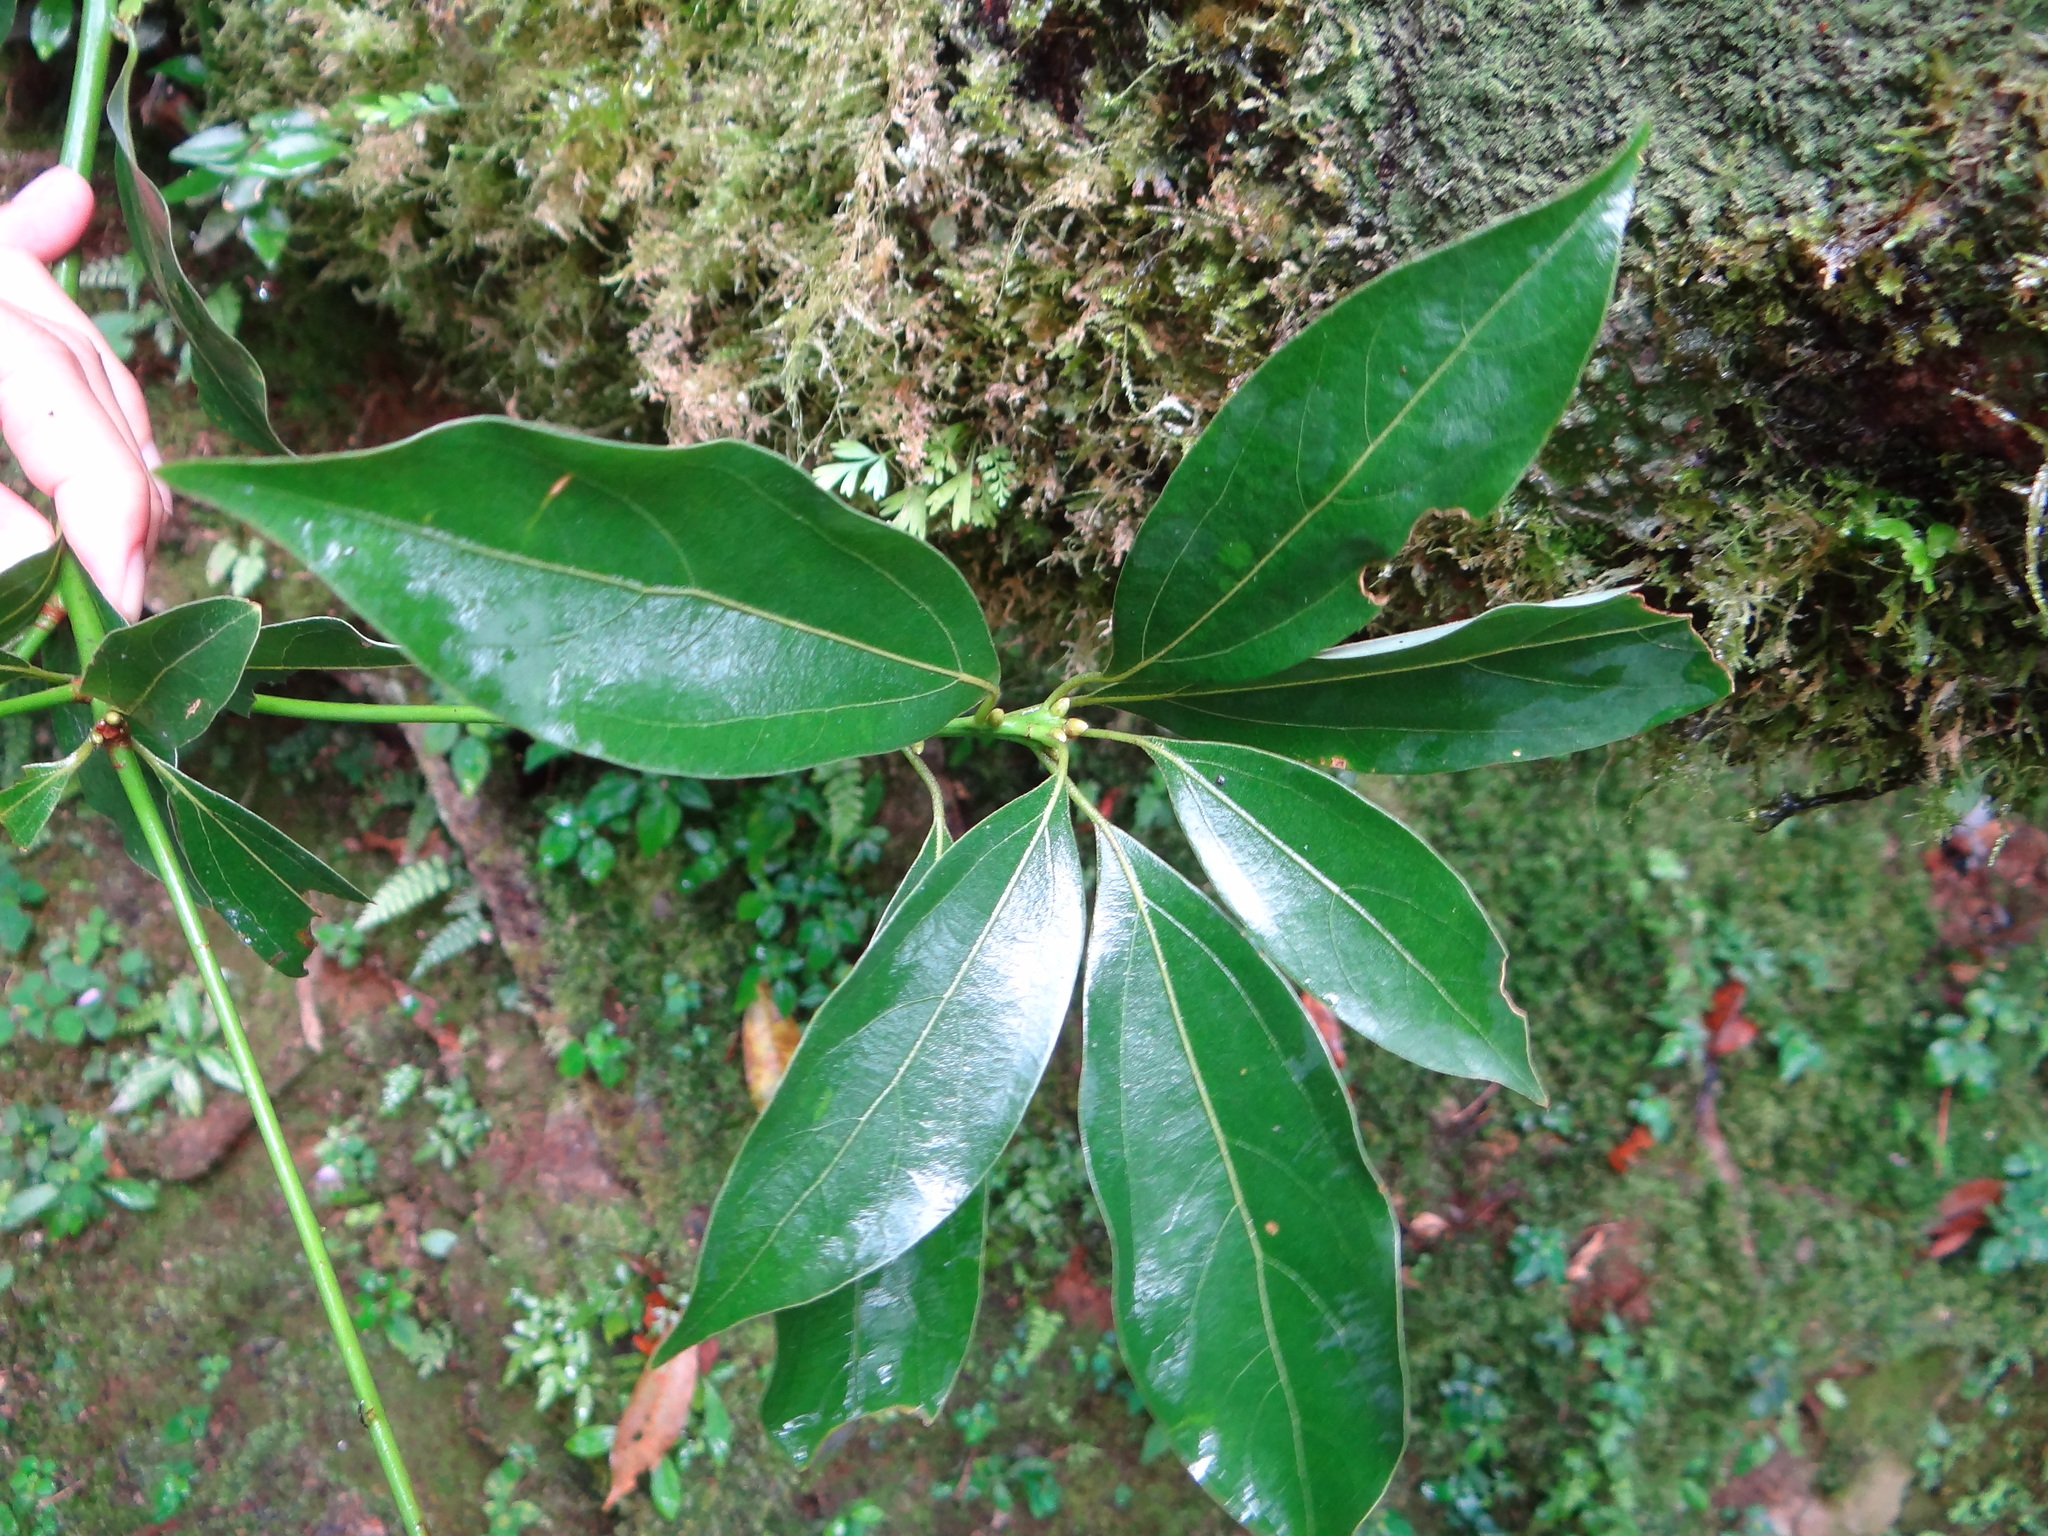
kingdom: Plantae
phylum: Tracheophyta
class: Magnoliopsida
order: Laurales
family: Lauraceae
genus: Neolitsea
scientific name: Neolitsea variabillima
